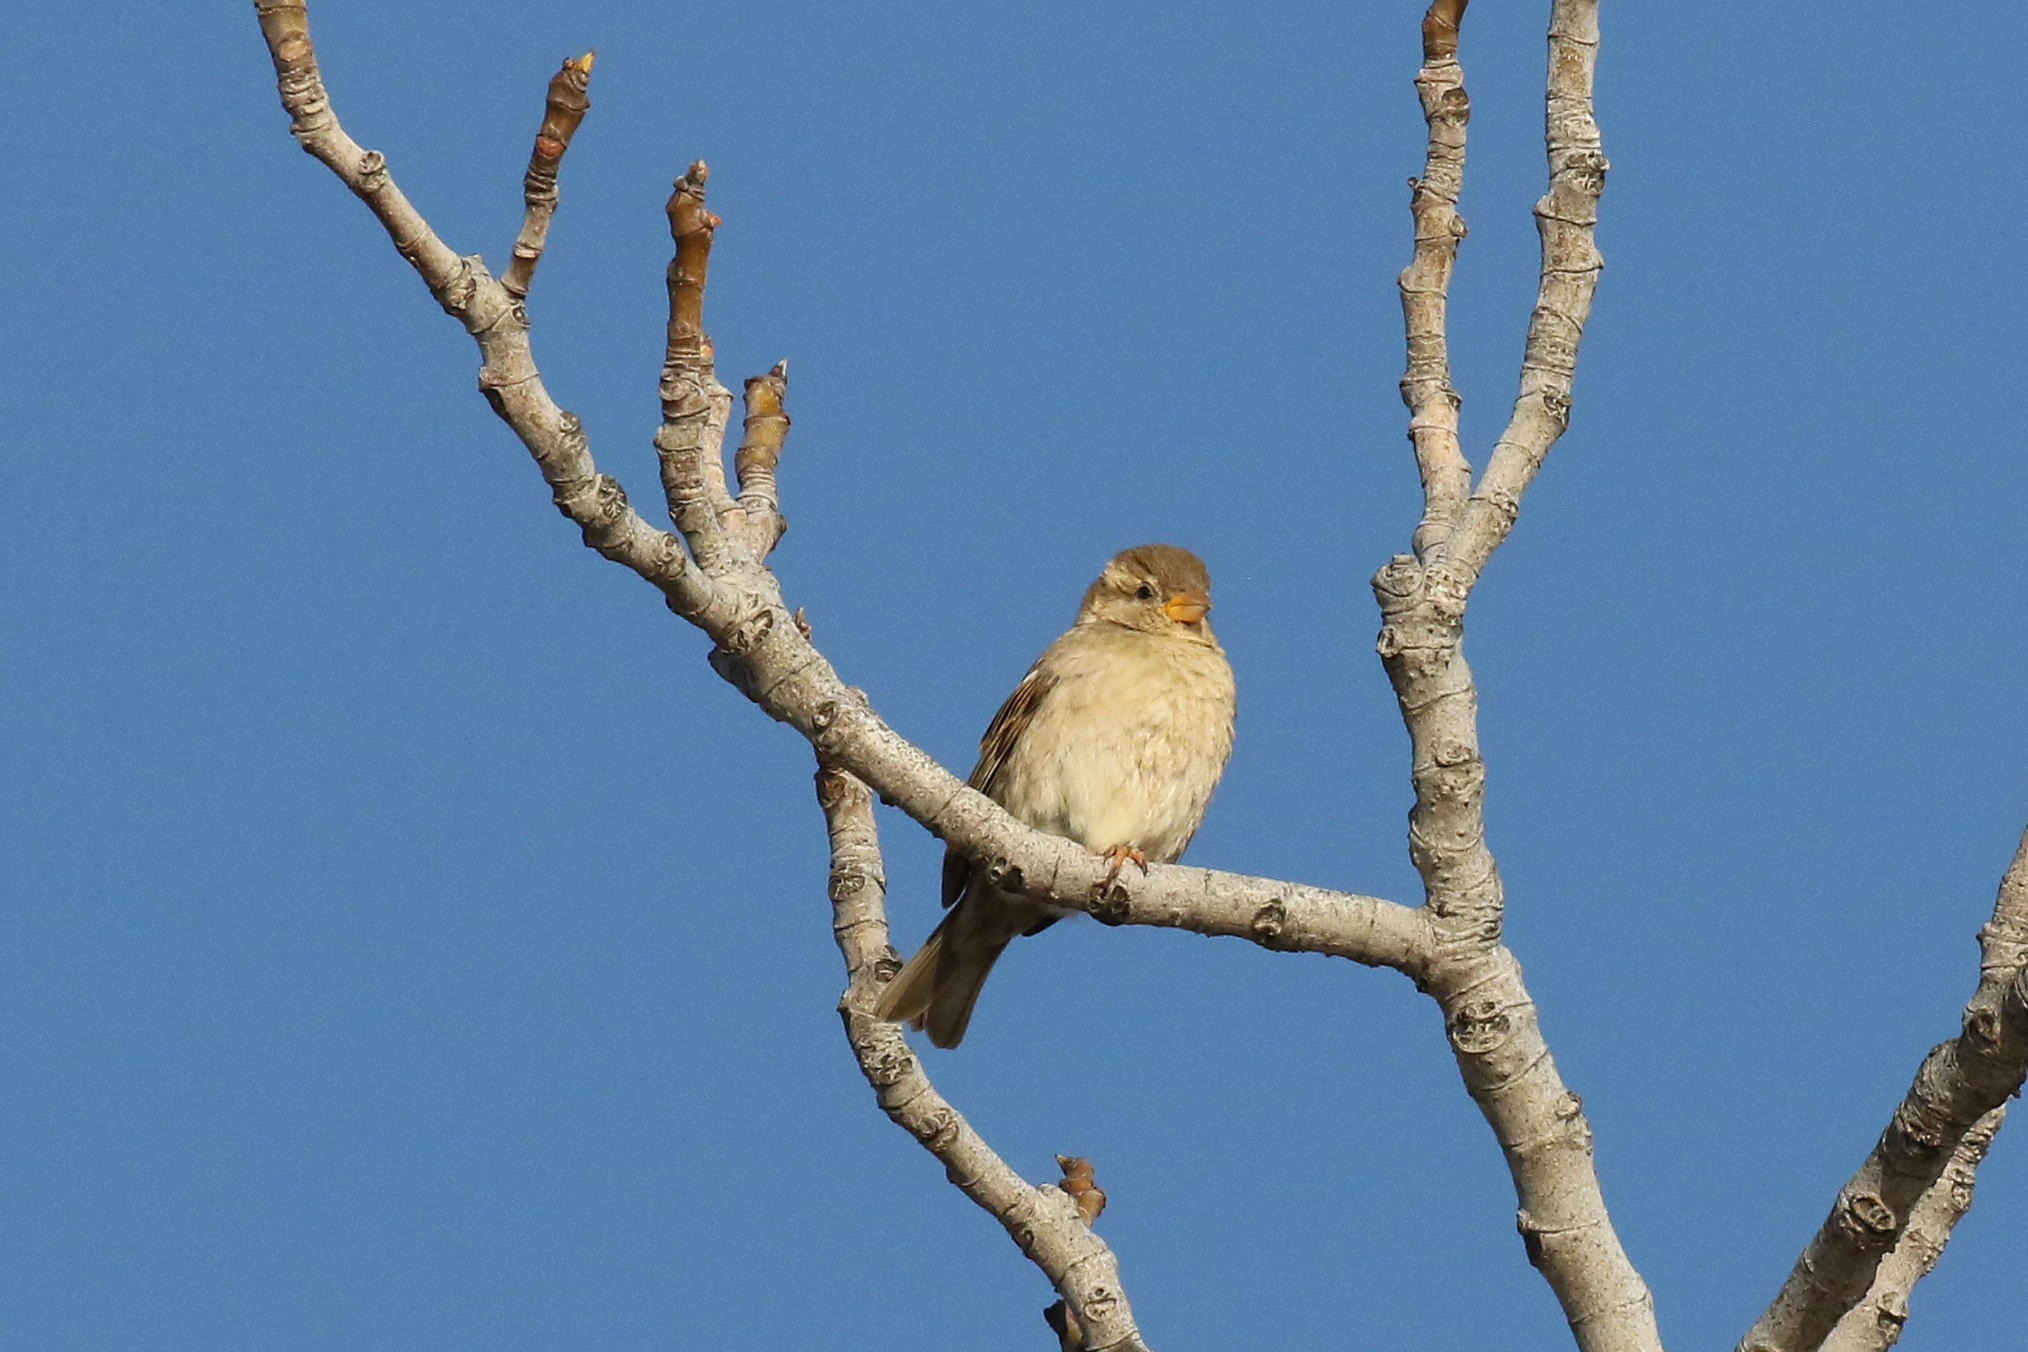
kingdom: Animalia
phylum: Chordata
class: Aves
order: Passeriformes
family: Passeridae
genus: Passer
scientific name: Passer domesticus
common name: House sparrow
